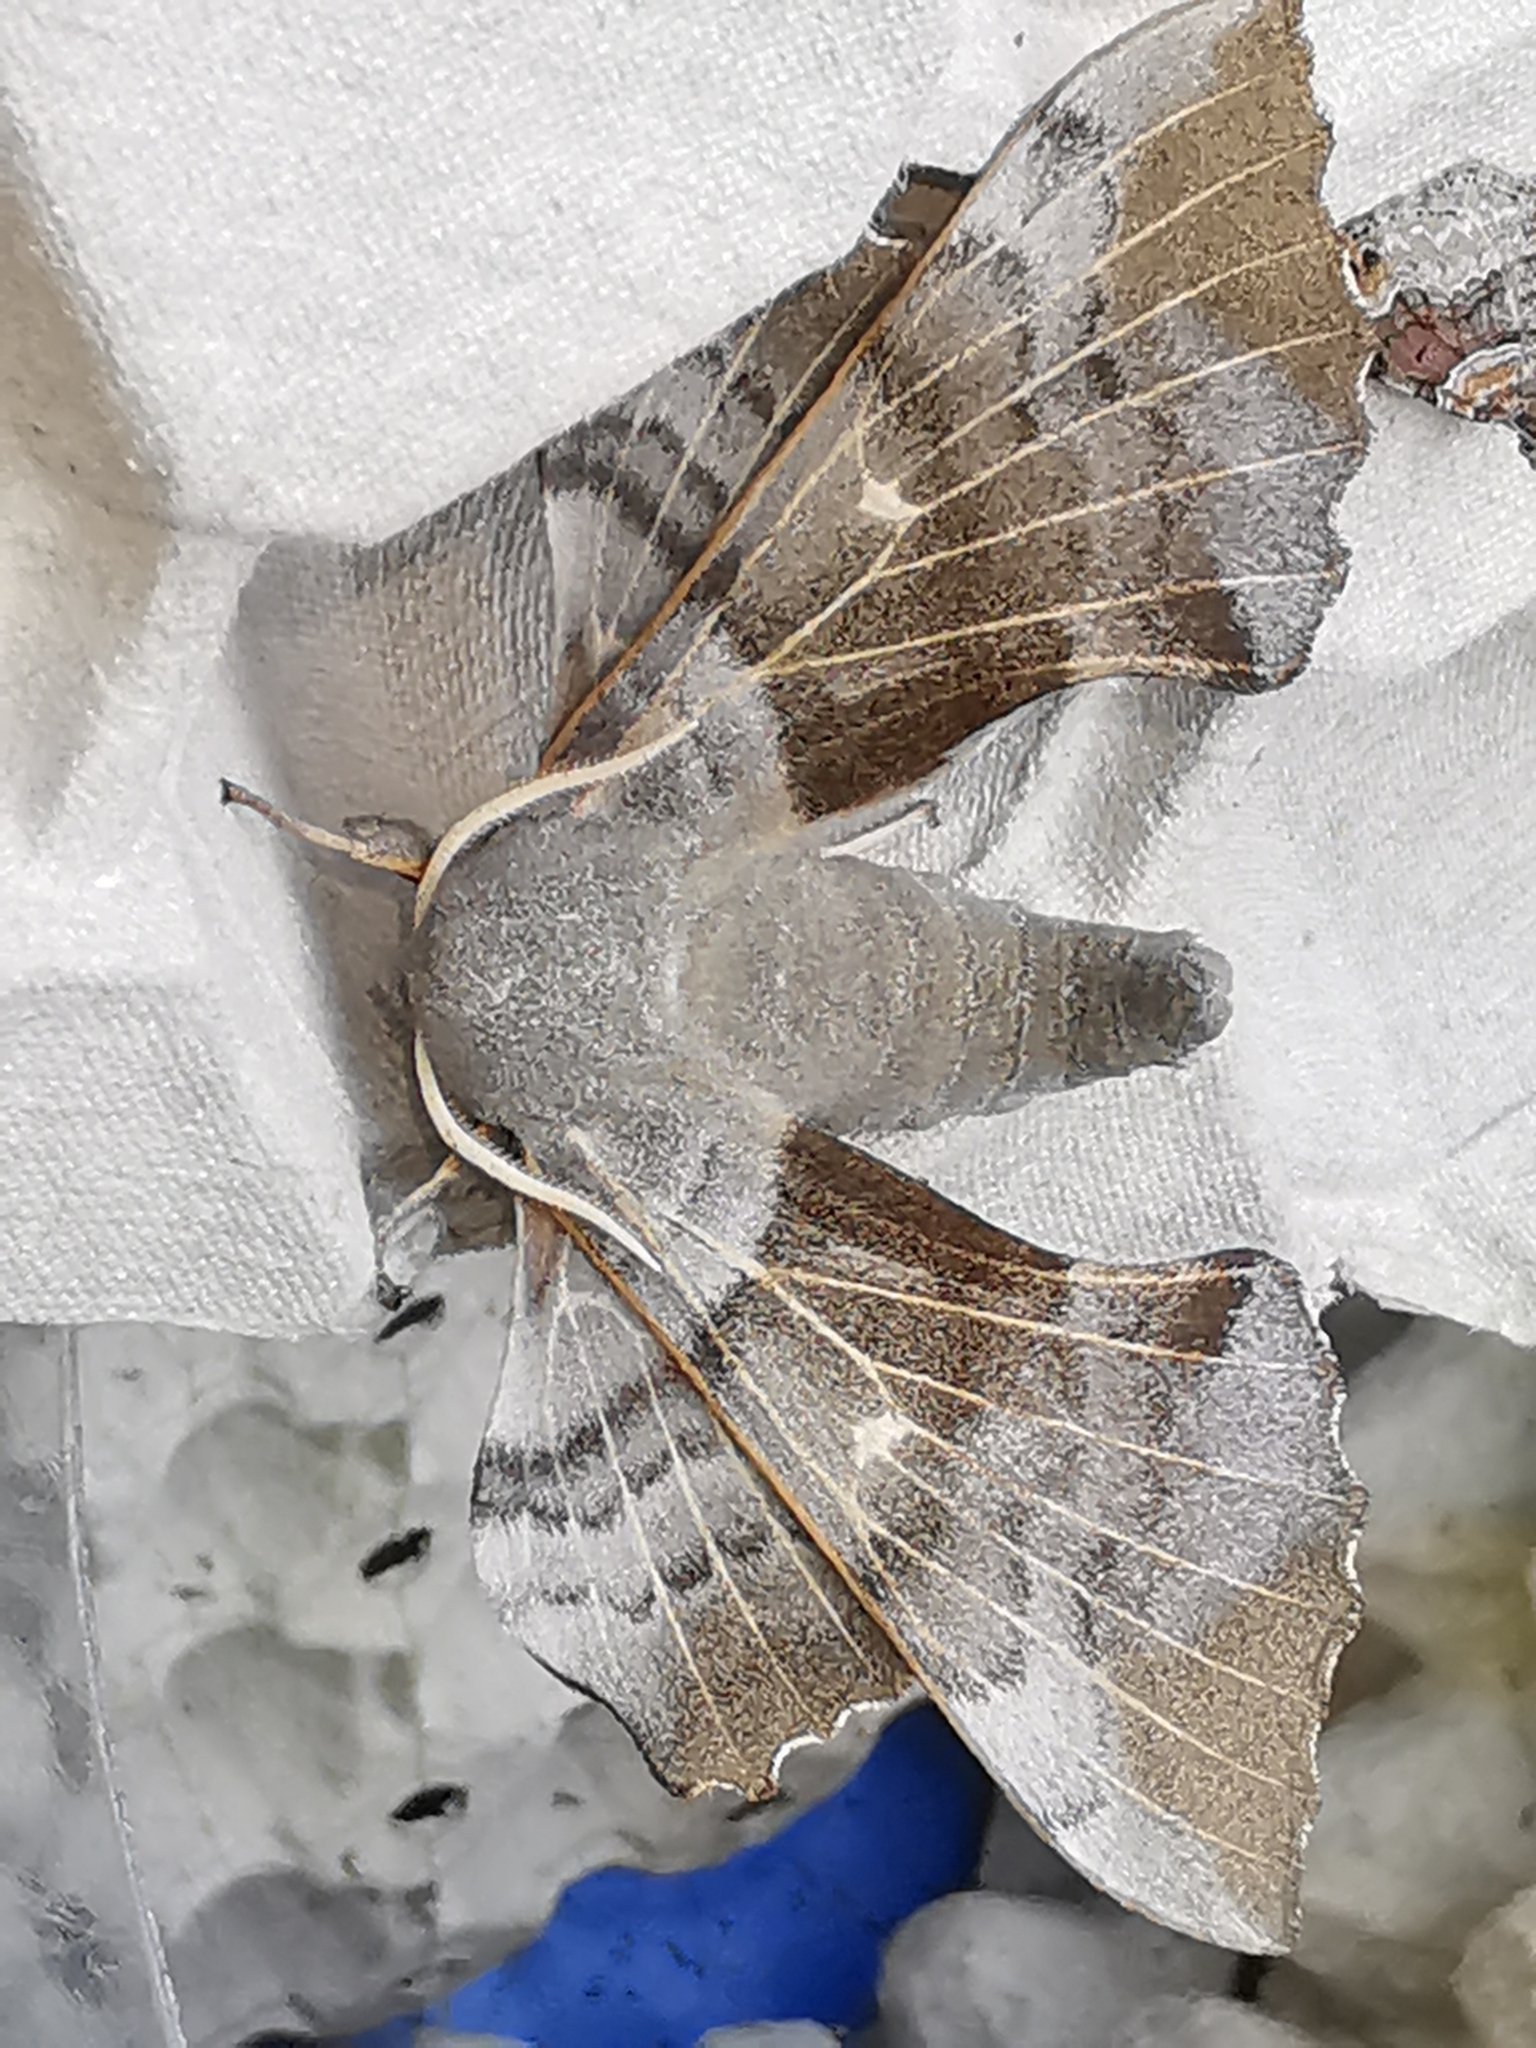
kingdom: Animalia
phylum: Arthropoda
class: Insecta
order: Lepidoptera
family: Sphingidae
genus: Laothoe
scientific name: Laothoe populi
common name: Poplar hawk-moth
